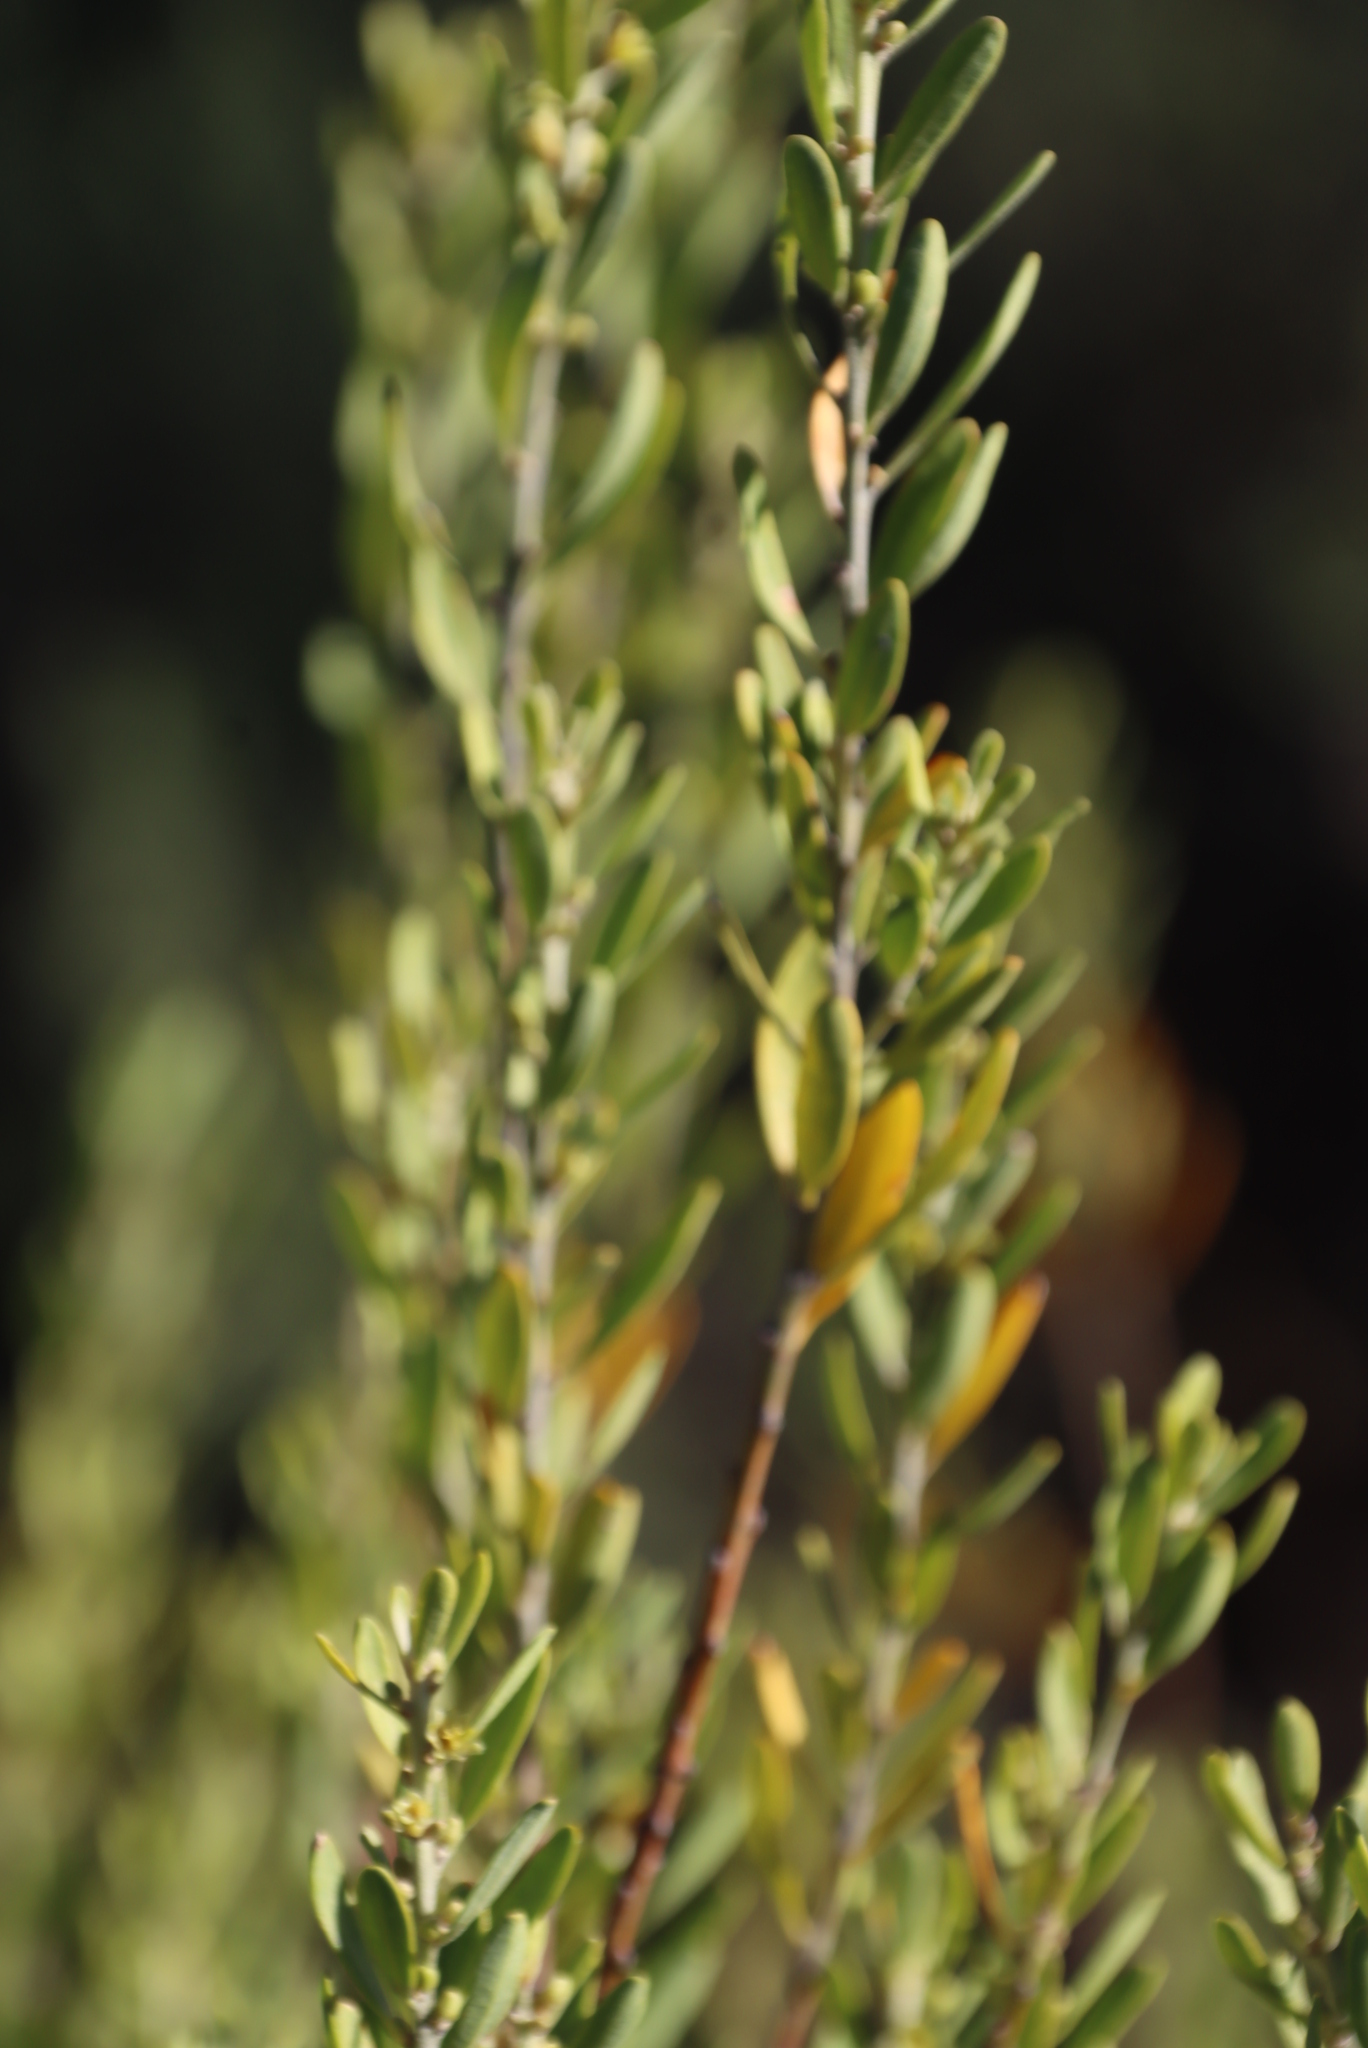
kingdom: Plantae
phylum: Tracheophyta
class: Magnoliopsida
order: Malpighiales
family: Peraceae
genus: Clutia
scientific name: Clutia daphnoides
